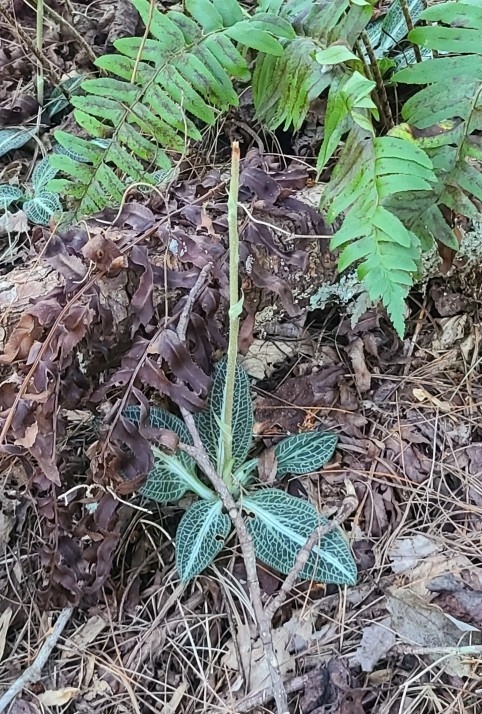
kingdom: Plantae
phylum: Tracheophyta
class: Liliopsida
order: Asparagales
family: Orchidaceae
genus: Goodyera
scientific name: Goodyera pubescens
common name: Downy rattlesnake-plantain
